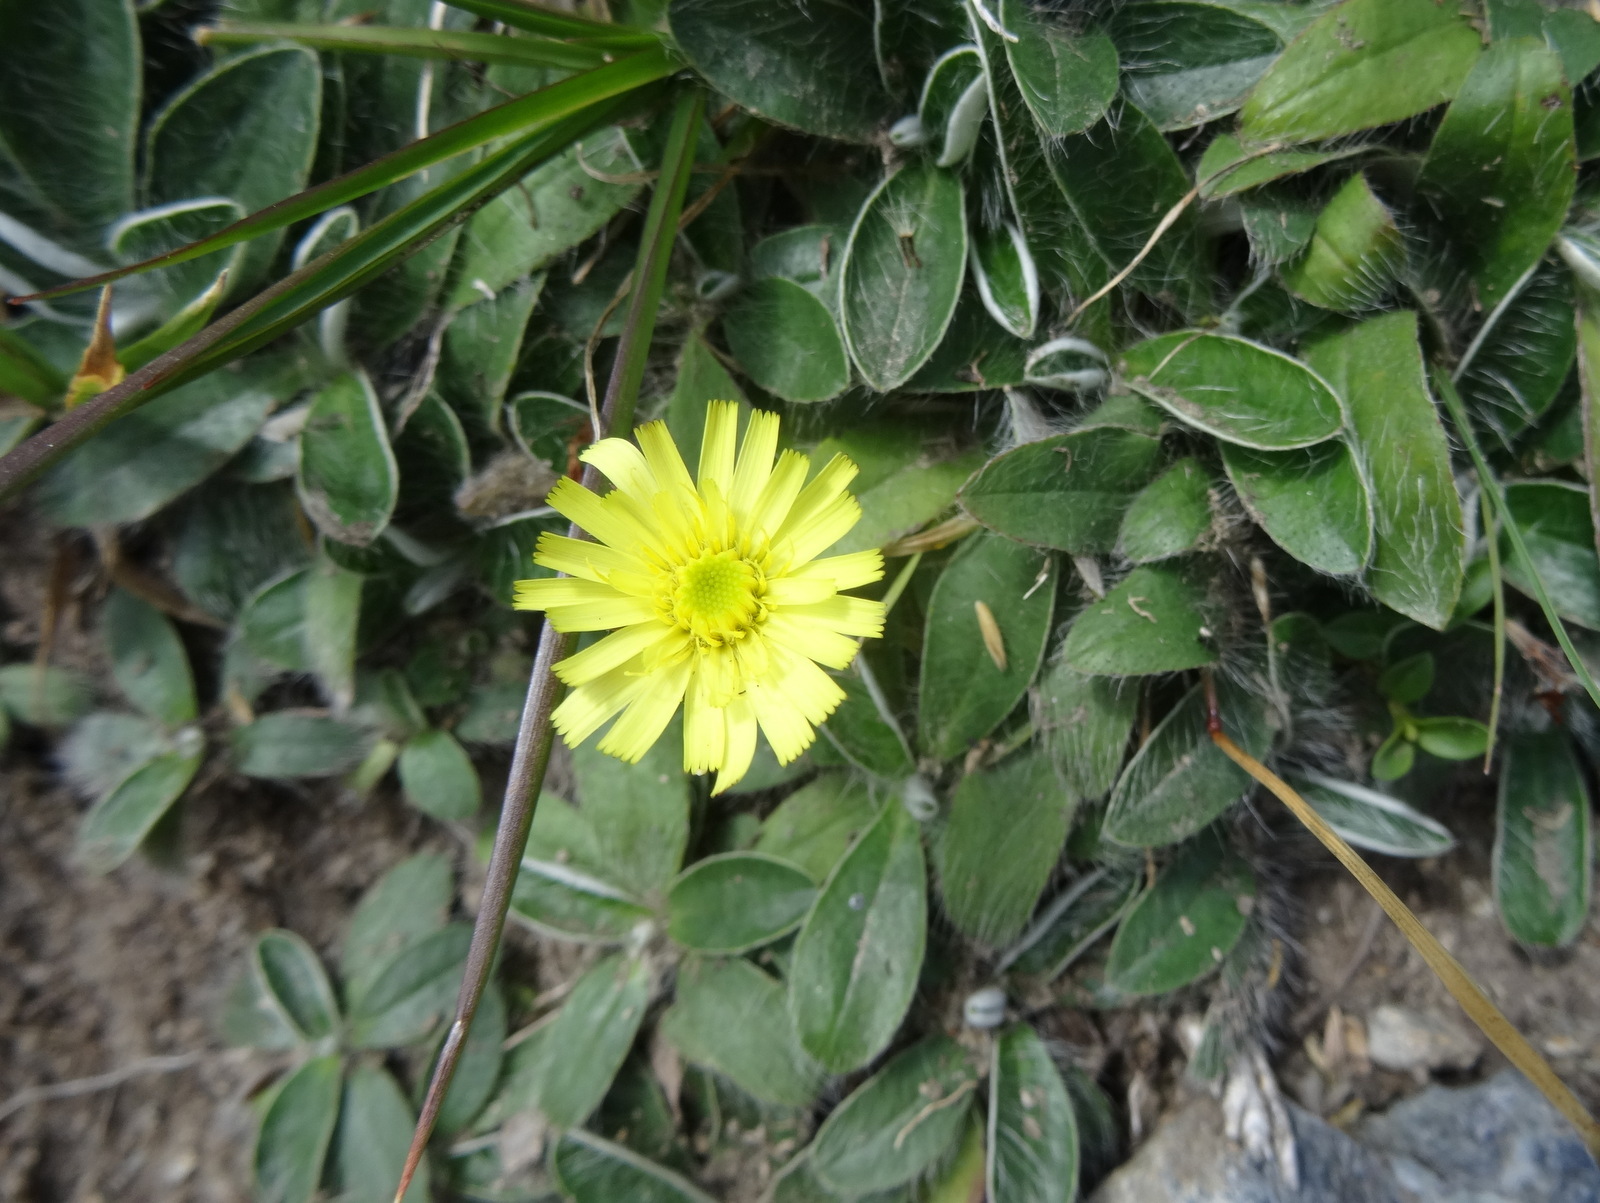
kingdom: Plantae
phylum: Tracheophyta
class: Magnoliopsida
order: Asterales
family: Asteraceae
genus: Pilosella
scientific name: Pilosella officinarum
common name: Mouse-ear hawkweed
